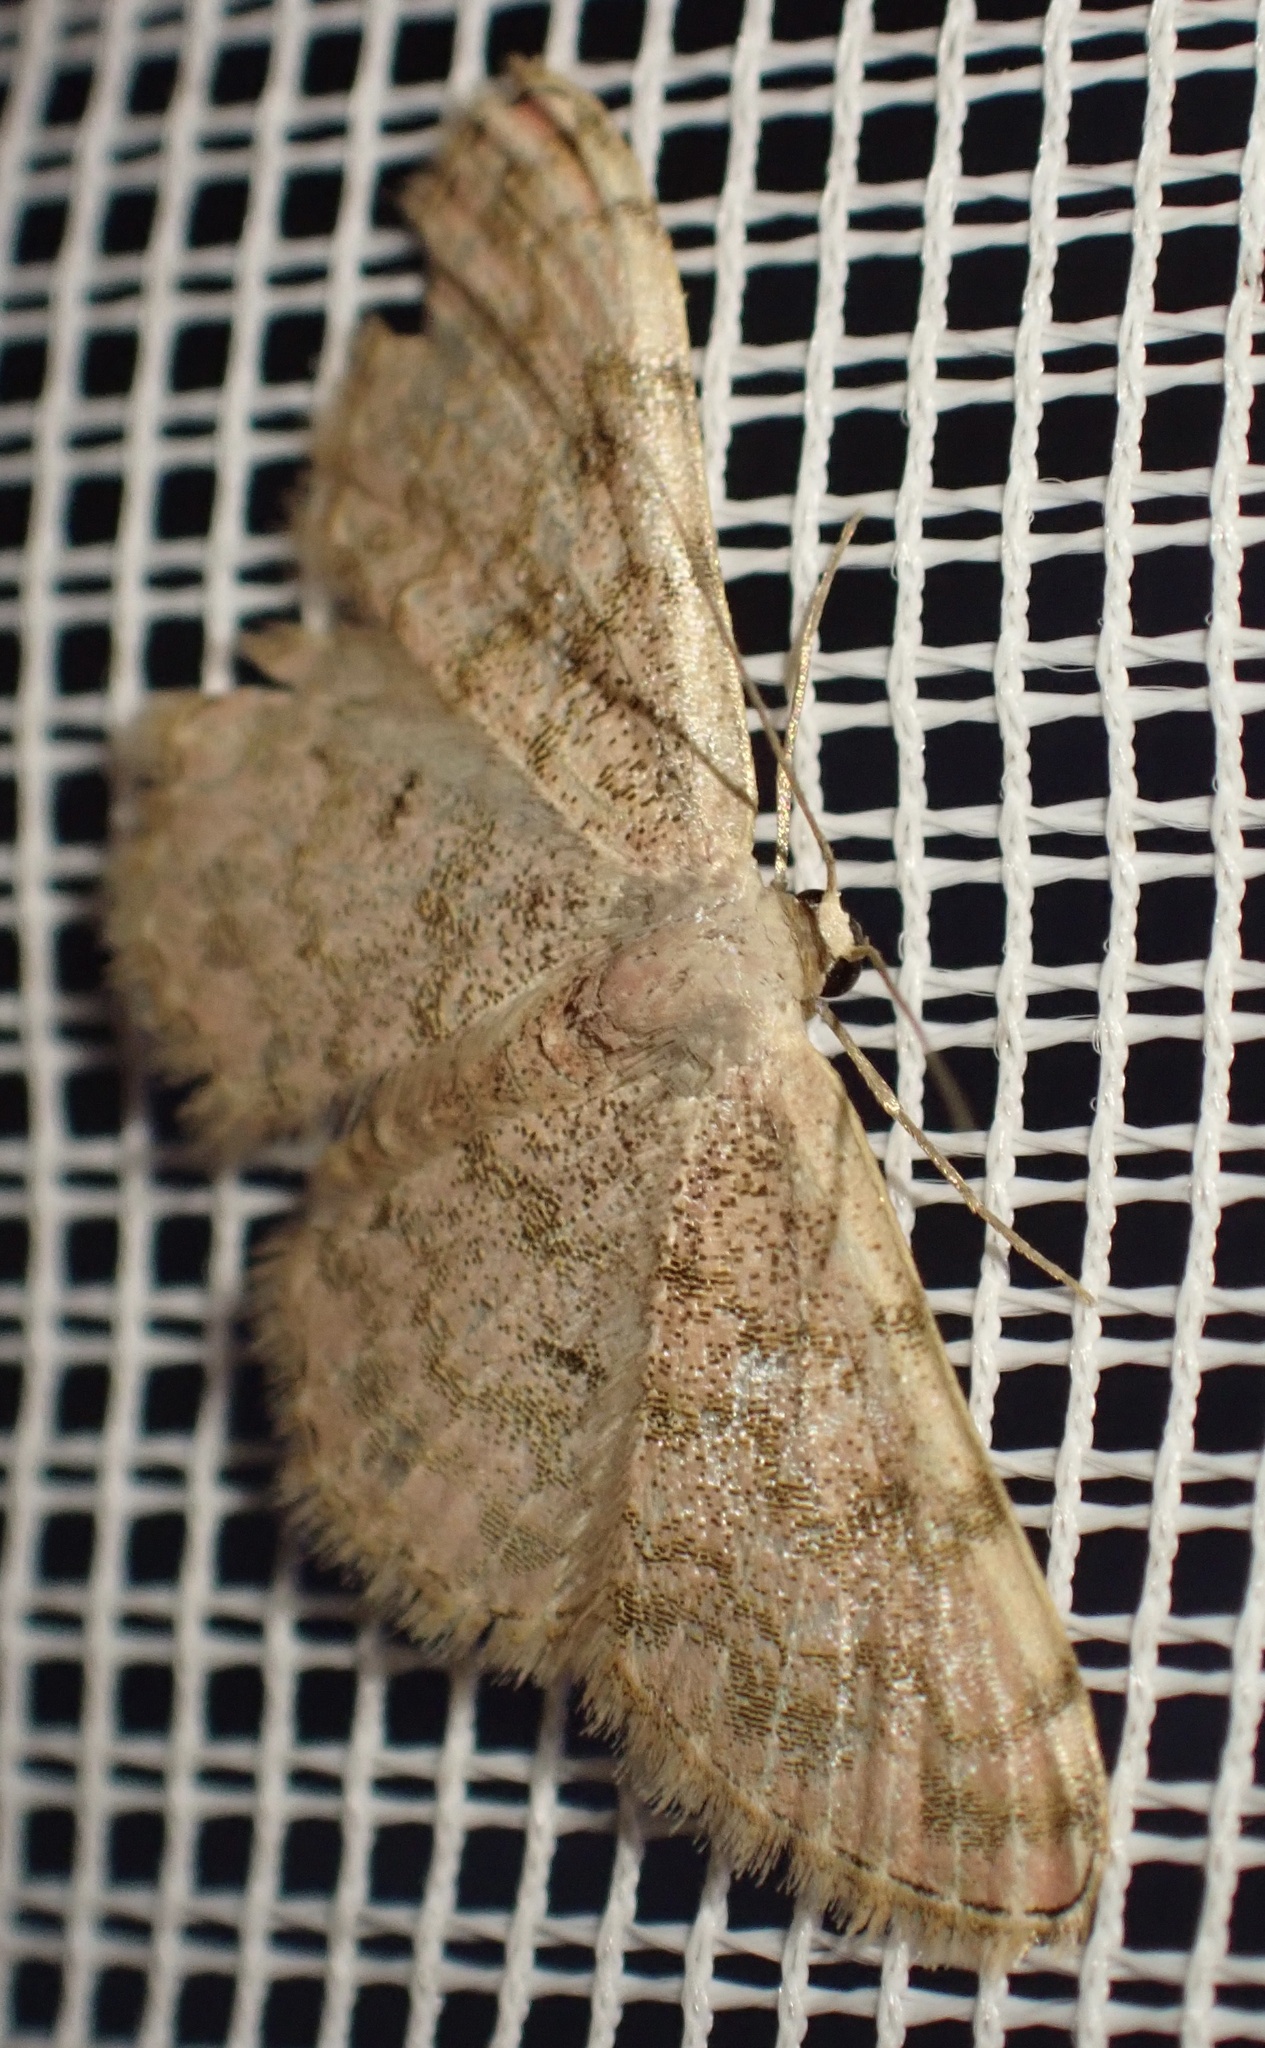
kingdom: Animalia
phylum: Arthropoda
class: Insecta
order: Lepidoptera
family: Geometridae
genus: Glossotrophia
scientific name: Glossotrophia asellaria
